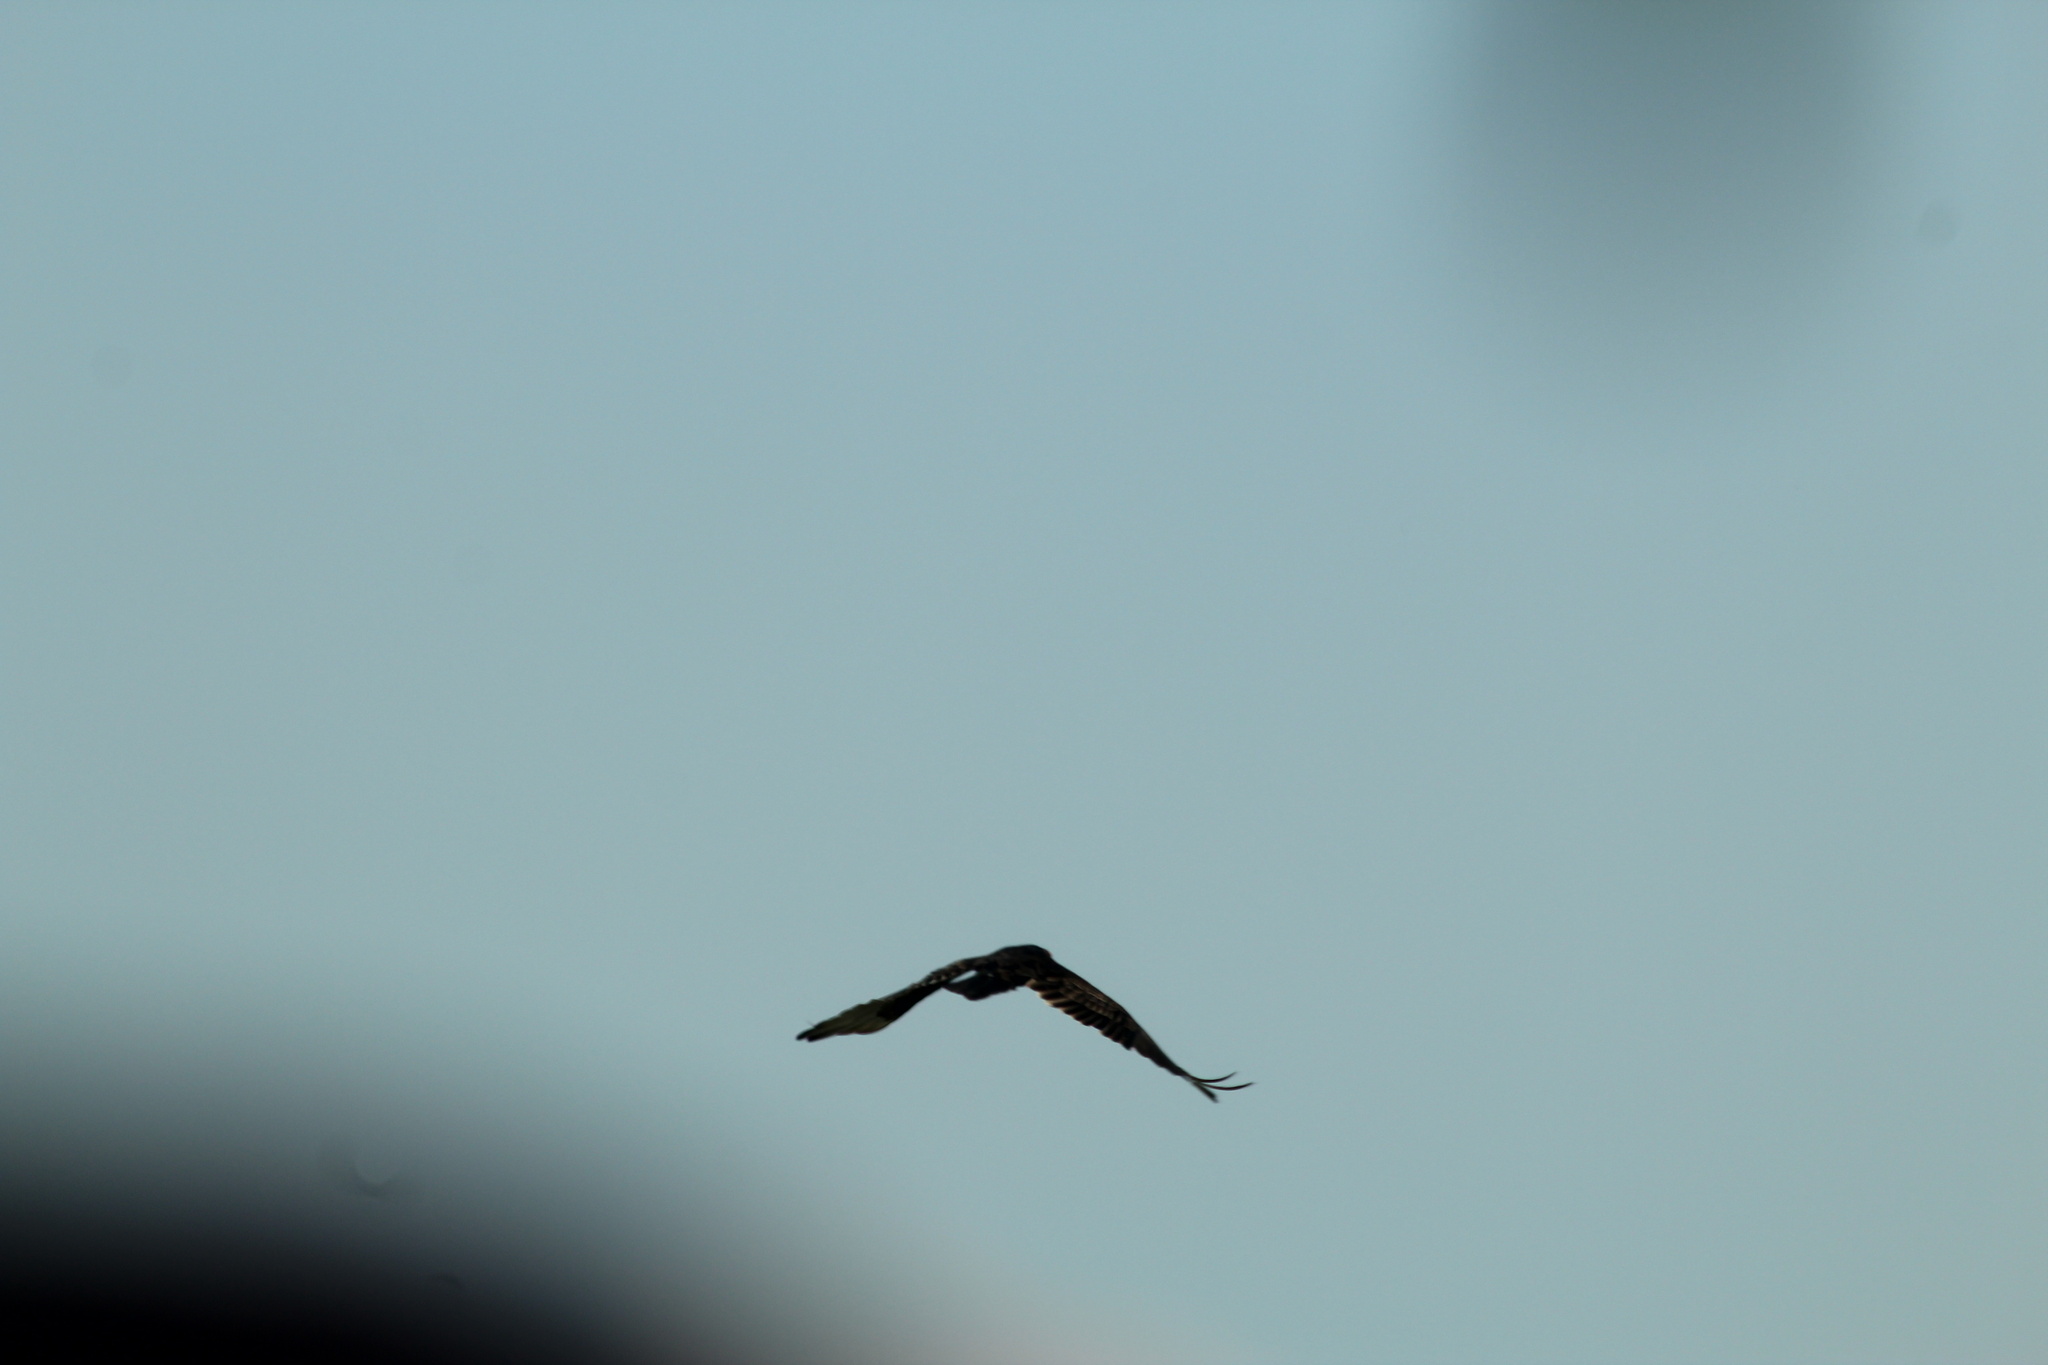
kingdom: Animalia
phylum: Chordata
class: Aves
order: Accipitriformes
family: Cathartidae
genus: Cathartes
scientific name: Cathartes aura
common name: Turkey vulture
